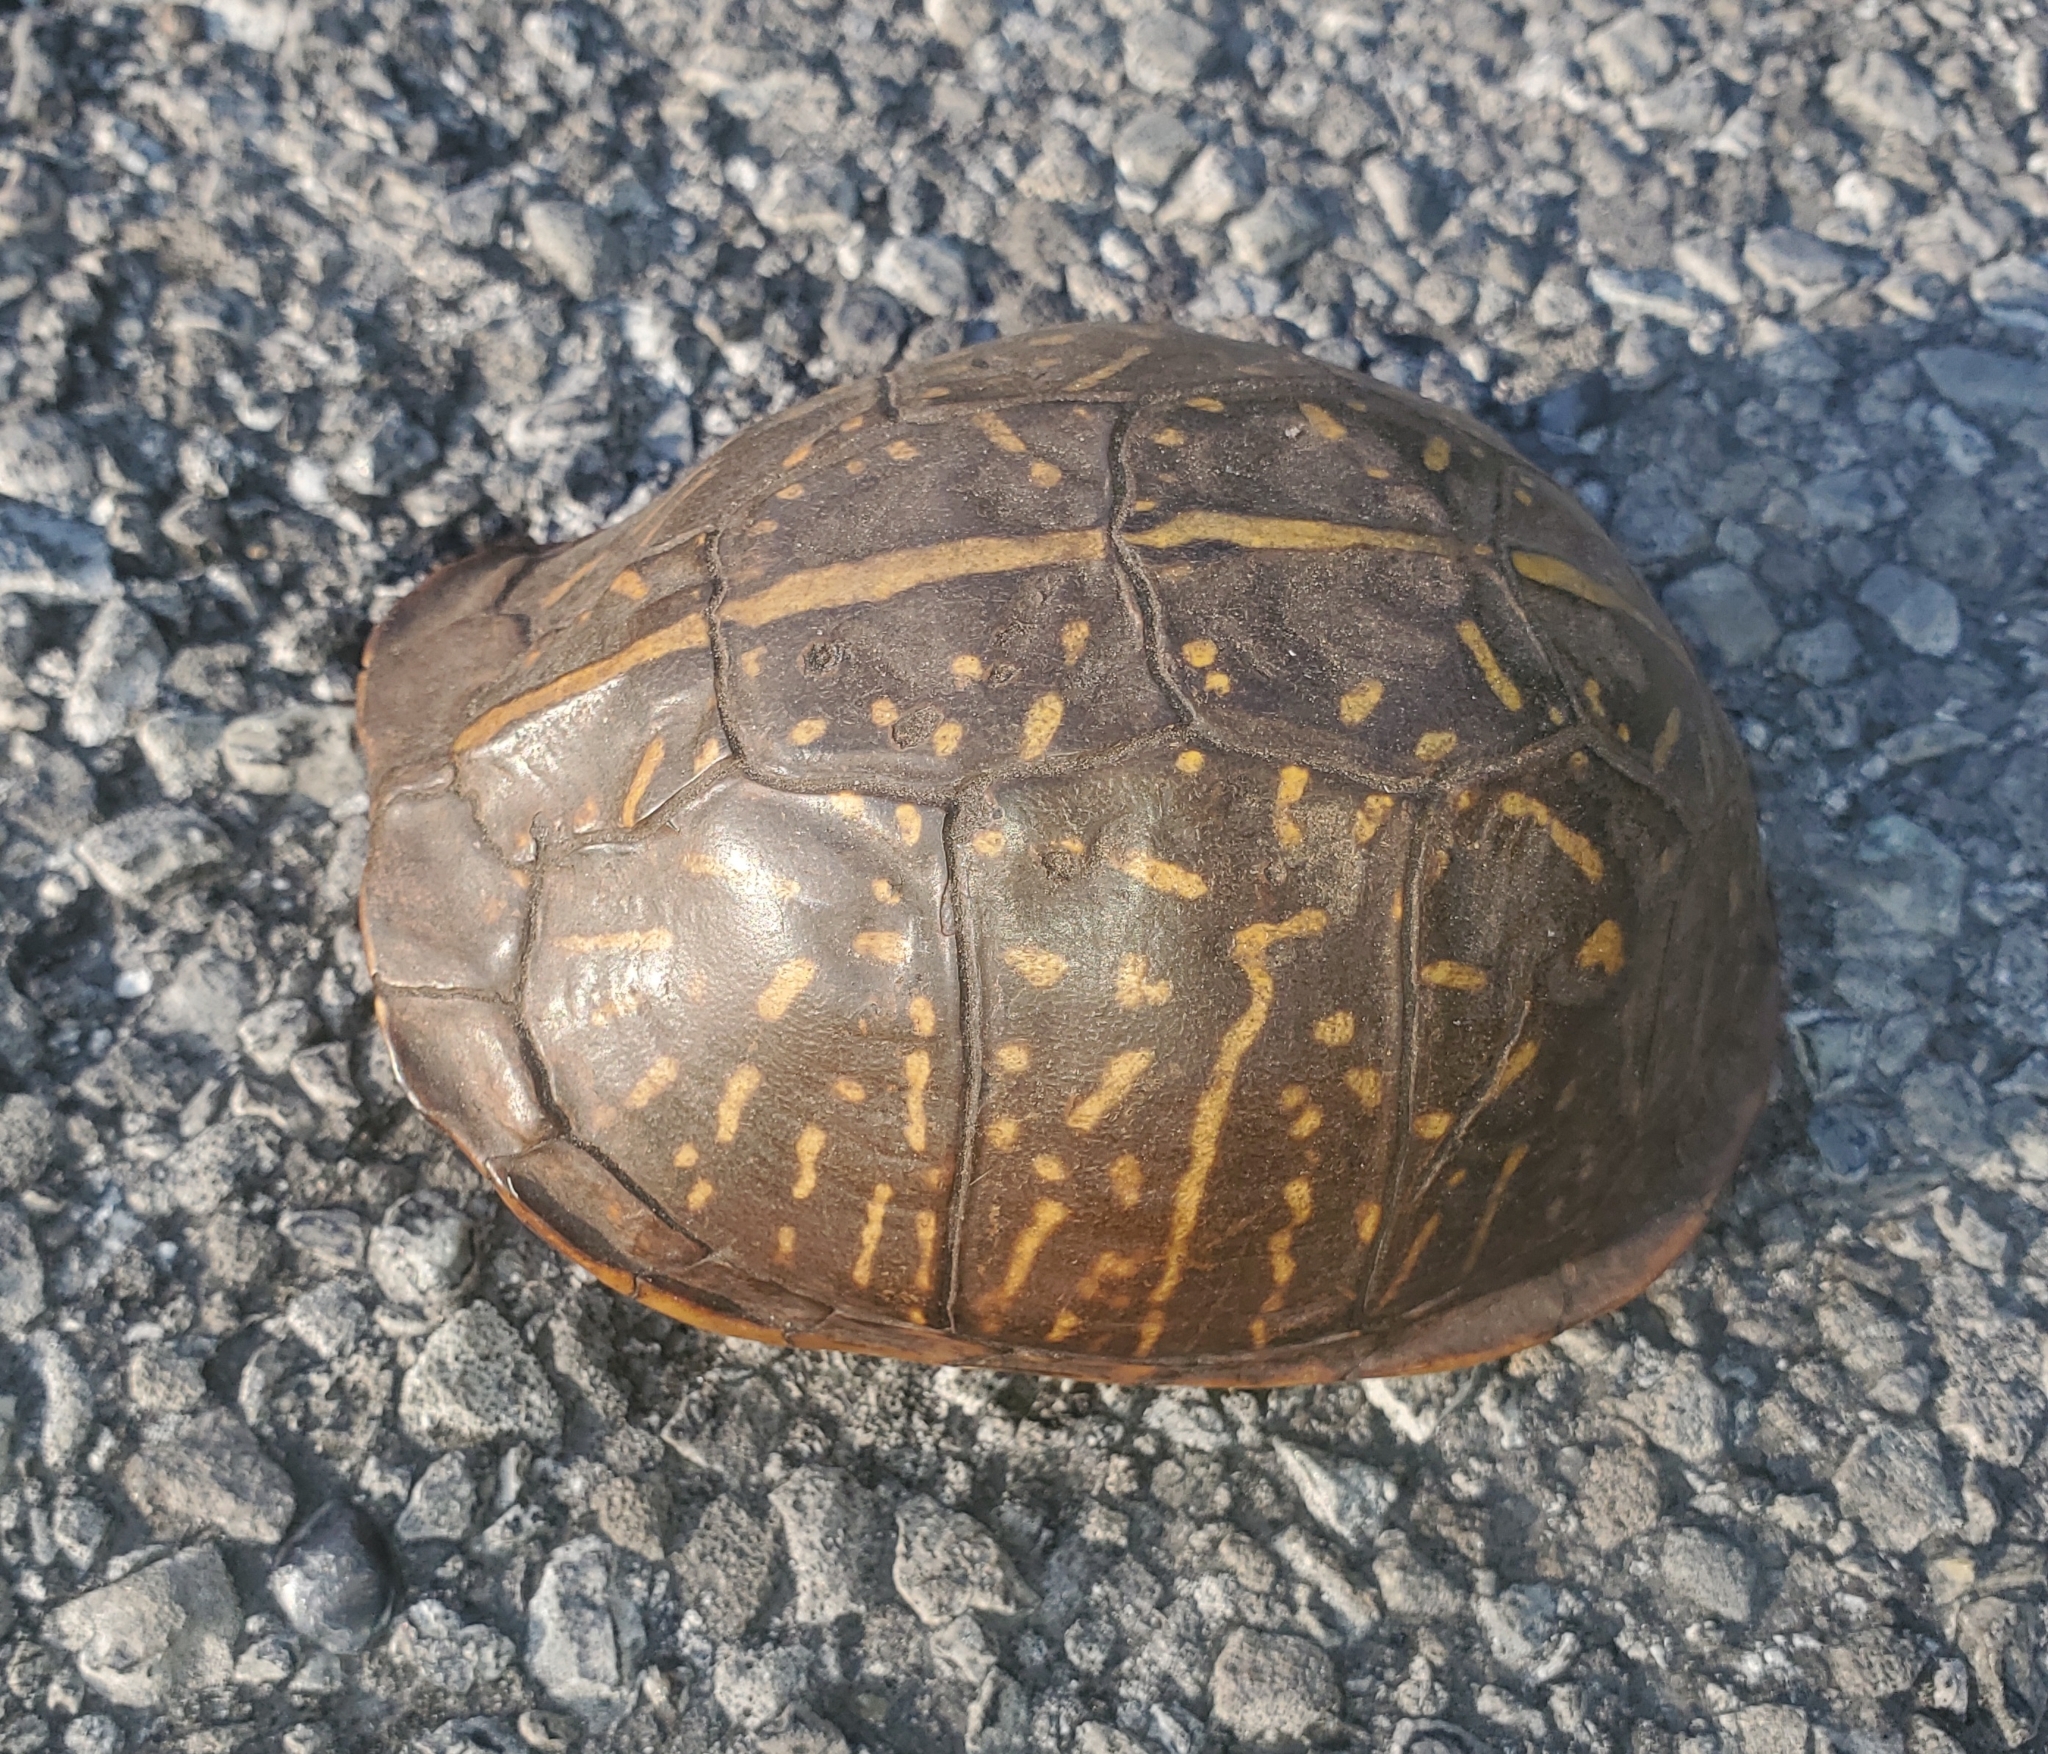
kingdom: Animalia
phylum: Chordata
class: Testudines
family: Emydidae
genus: Terrapene
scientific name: Terrapene carolina
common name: Common box turtle
